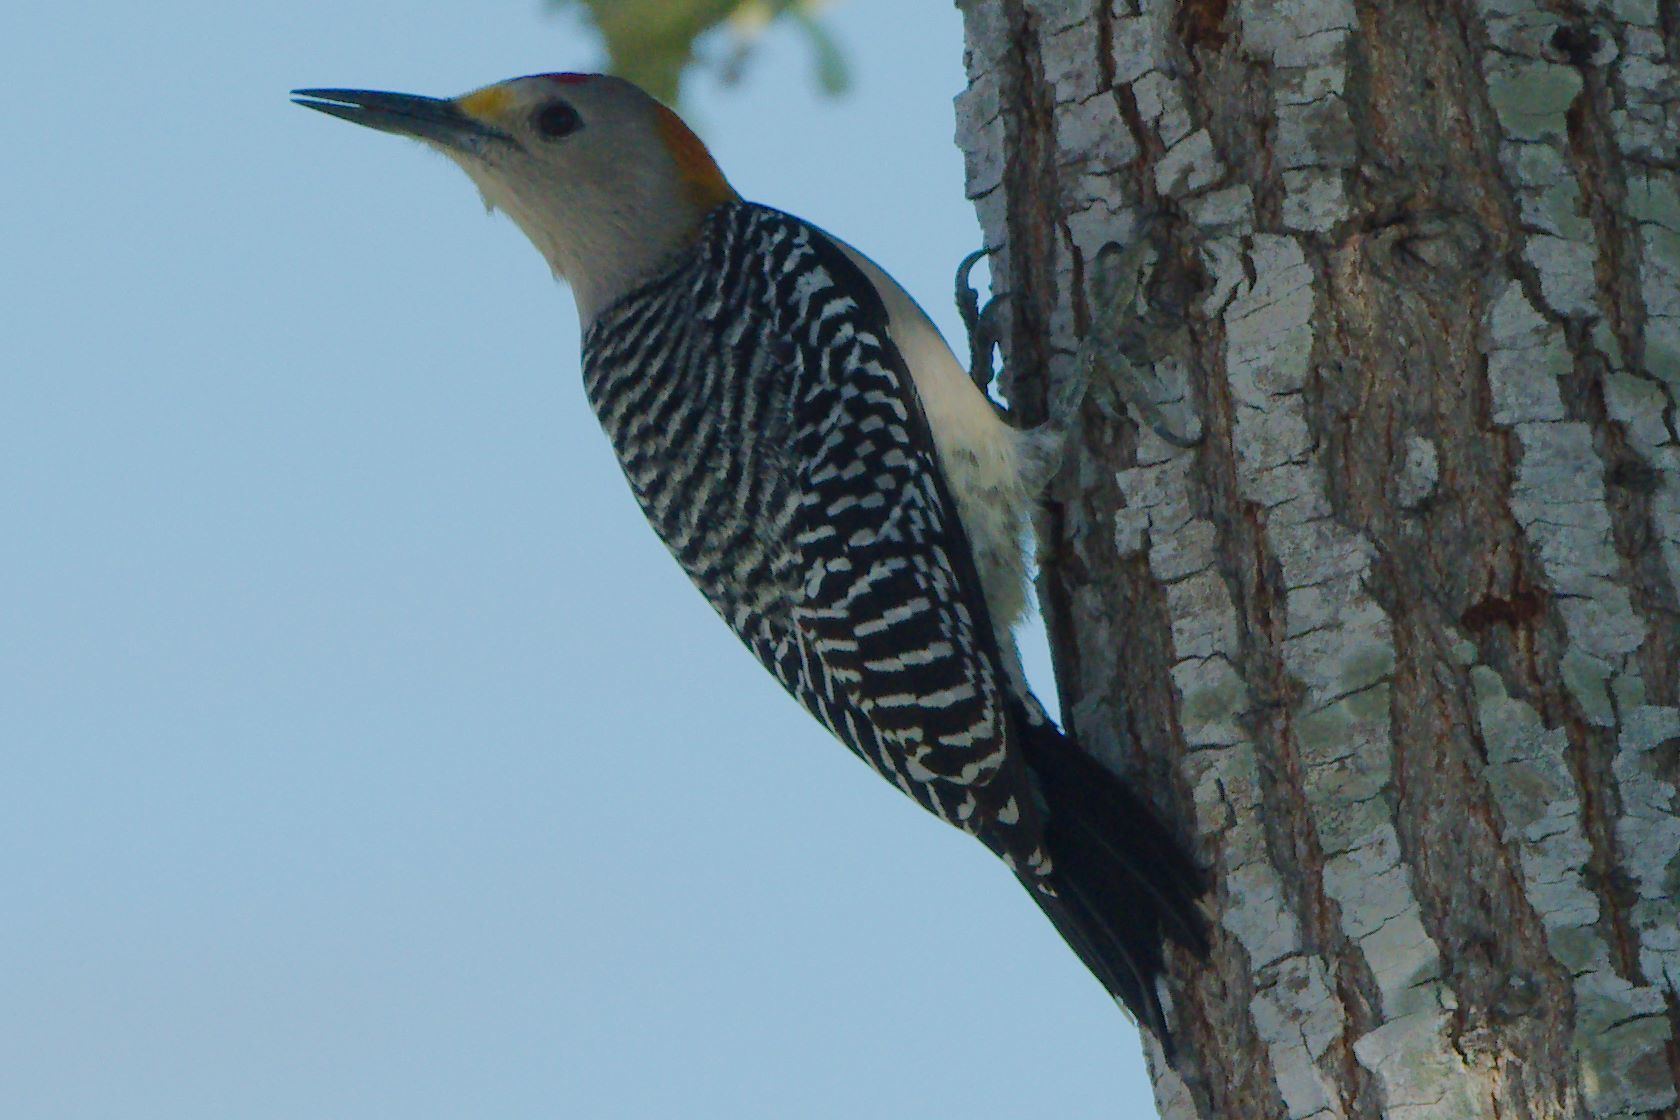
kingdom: Animalia
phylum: Chordata
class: Aves
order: Piciformes
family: Picidae
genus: Melanerpes
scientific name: Melanerpes aurifrons
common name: Golden-fronted woodpecker
